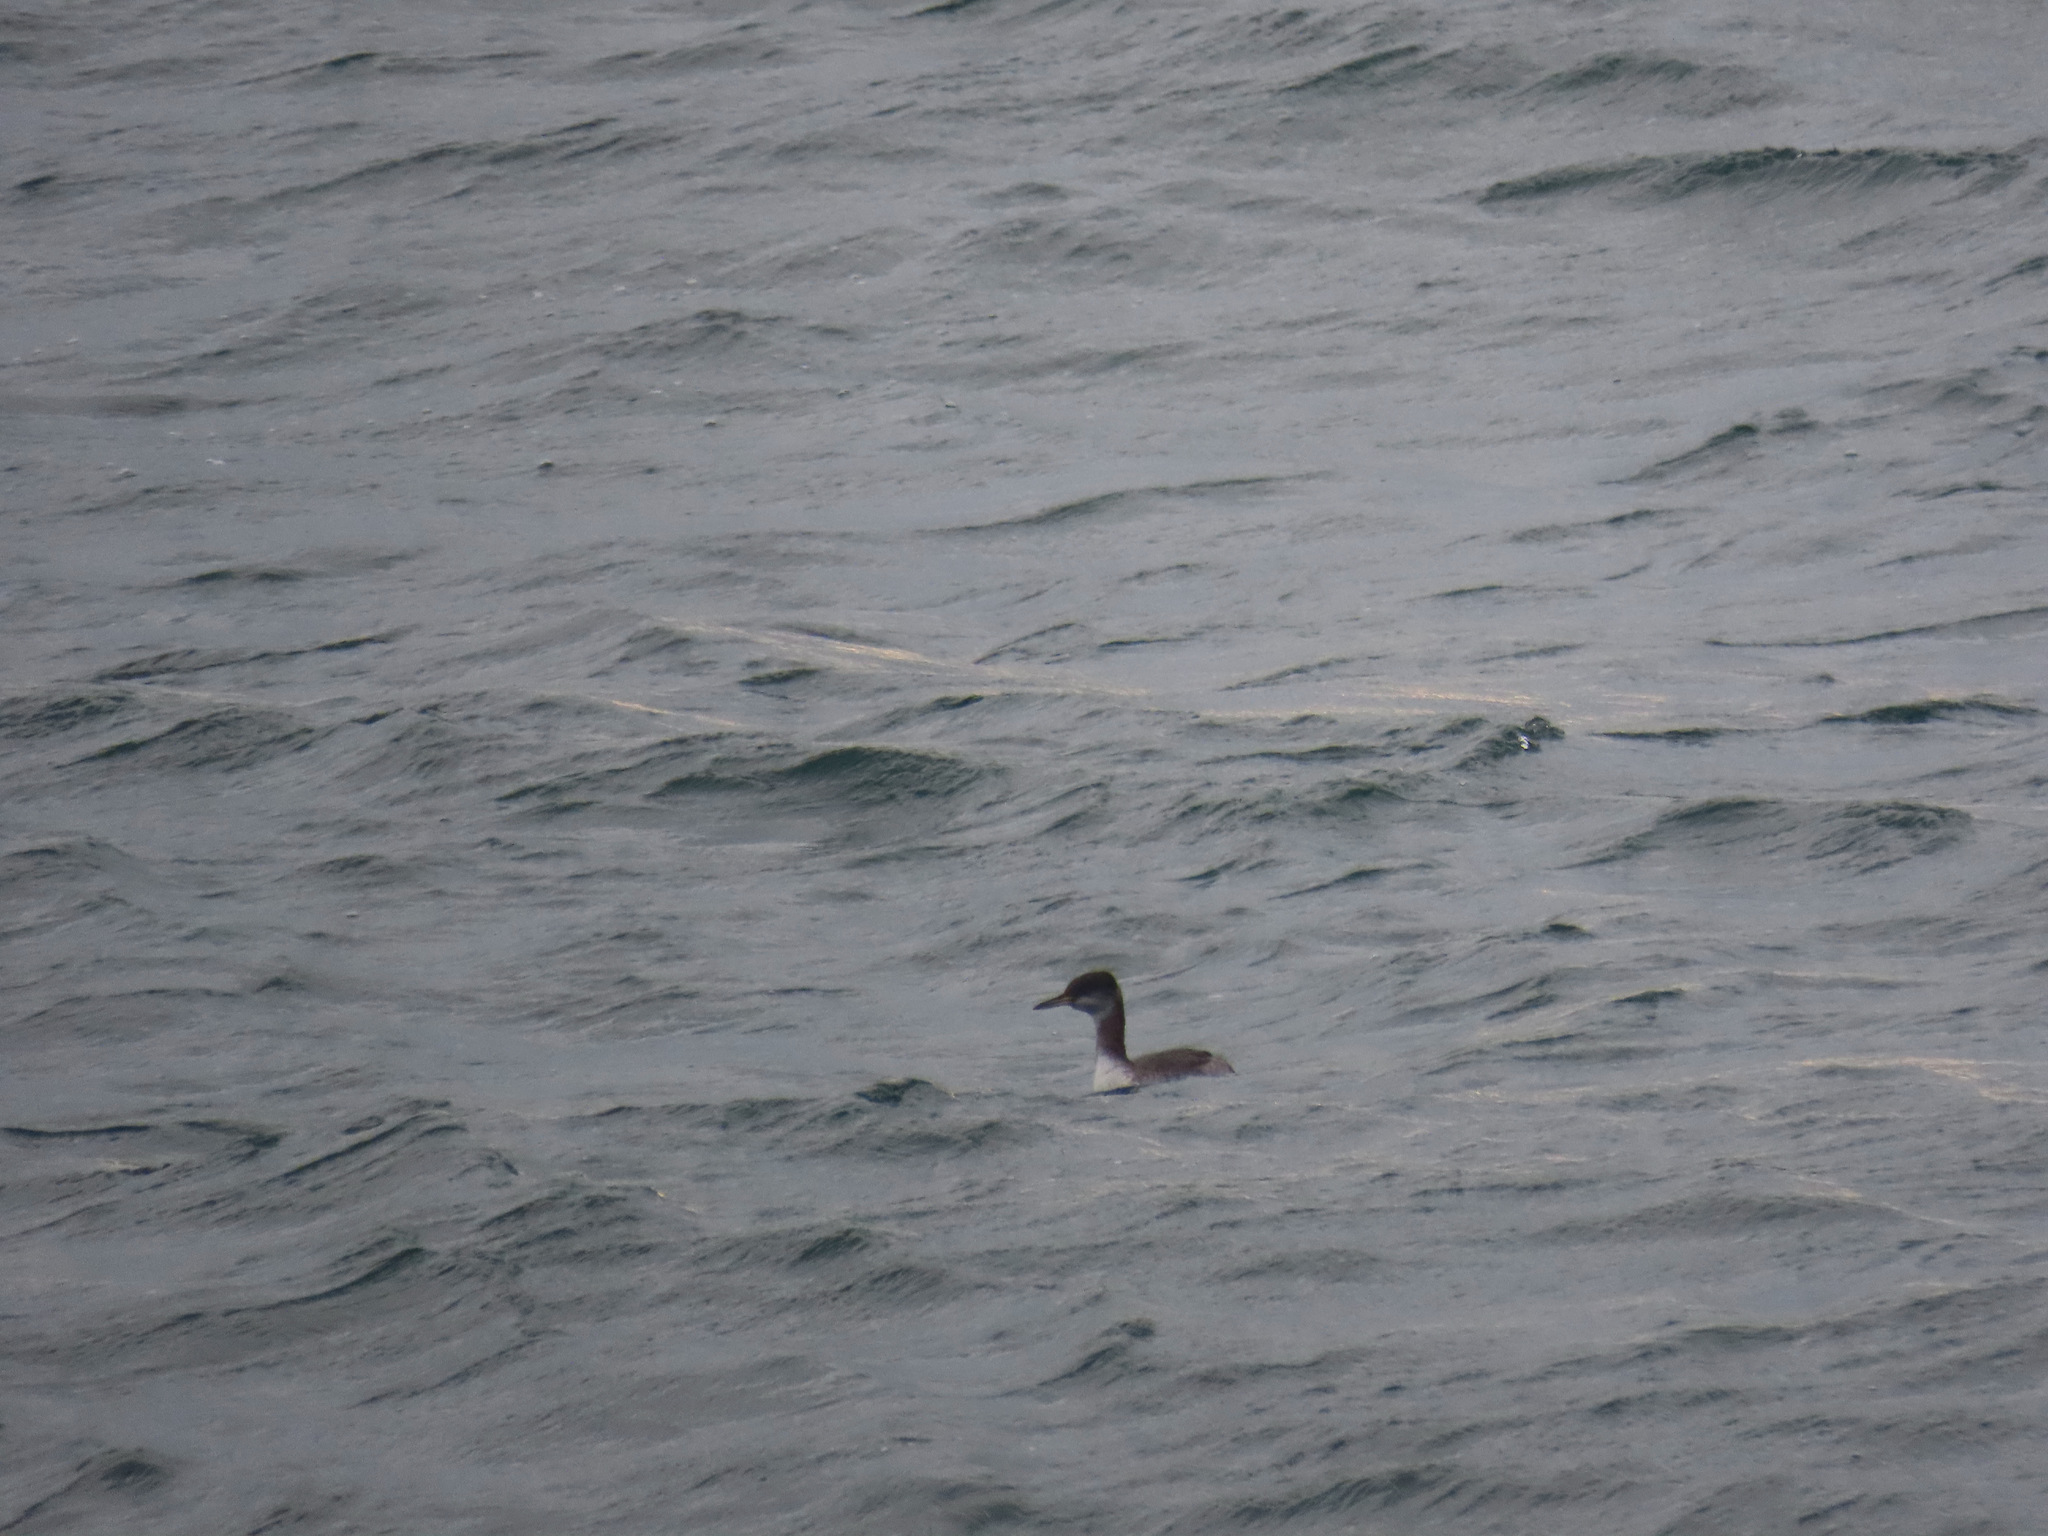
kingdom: Animalia
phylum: Chordata
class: Aves
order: Podicipediformes
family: Podicipedidae
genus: Podiceps
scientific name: Podiceps grisegena
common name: Red-necked grebe
